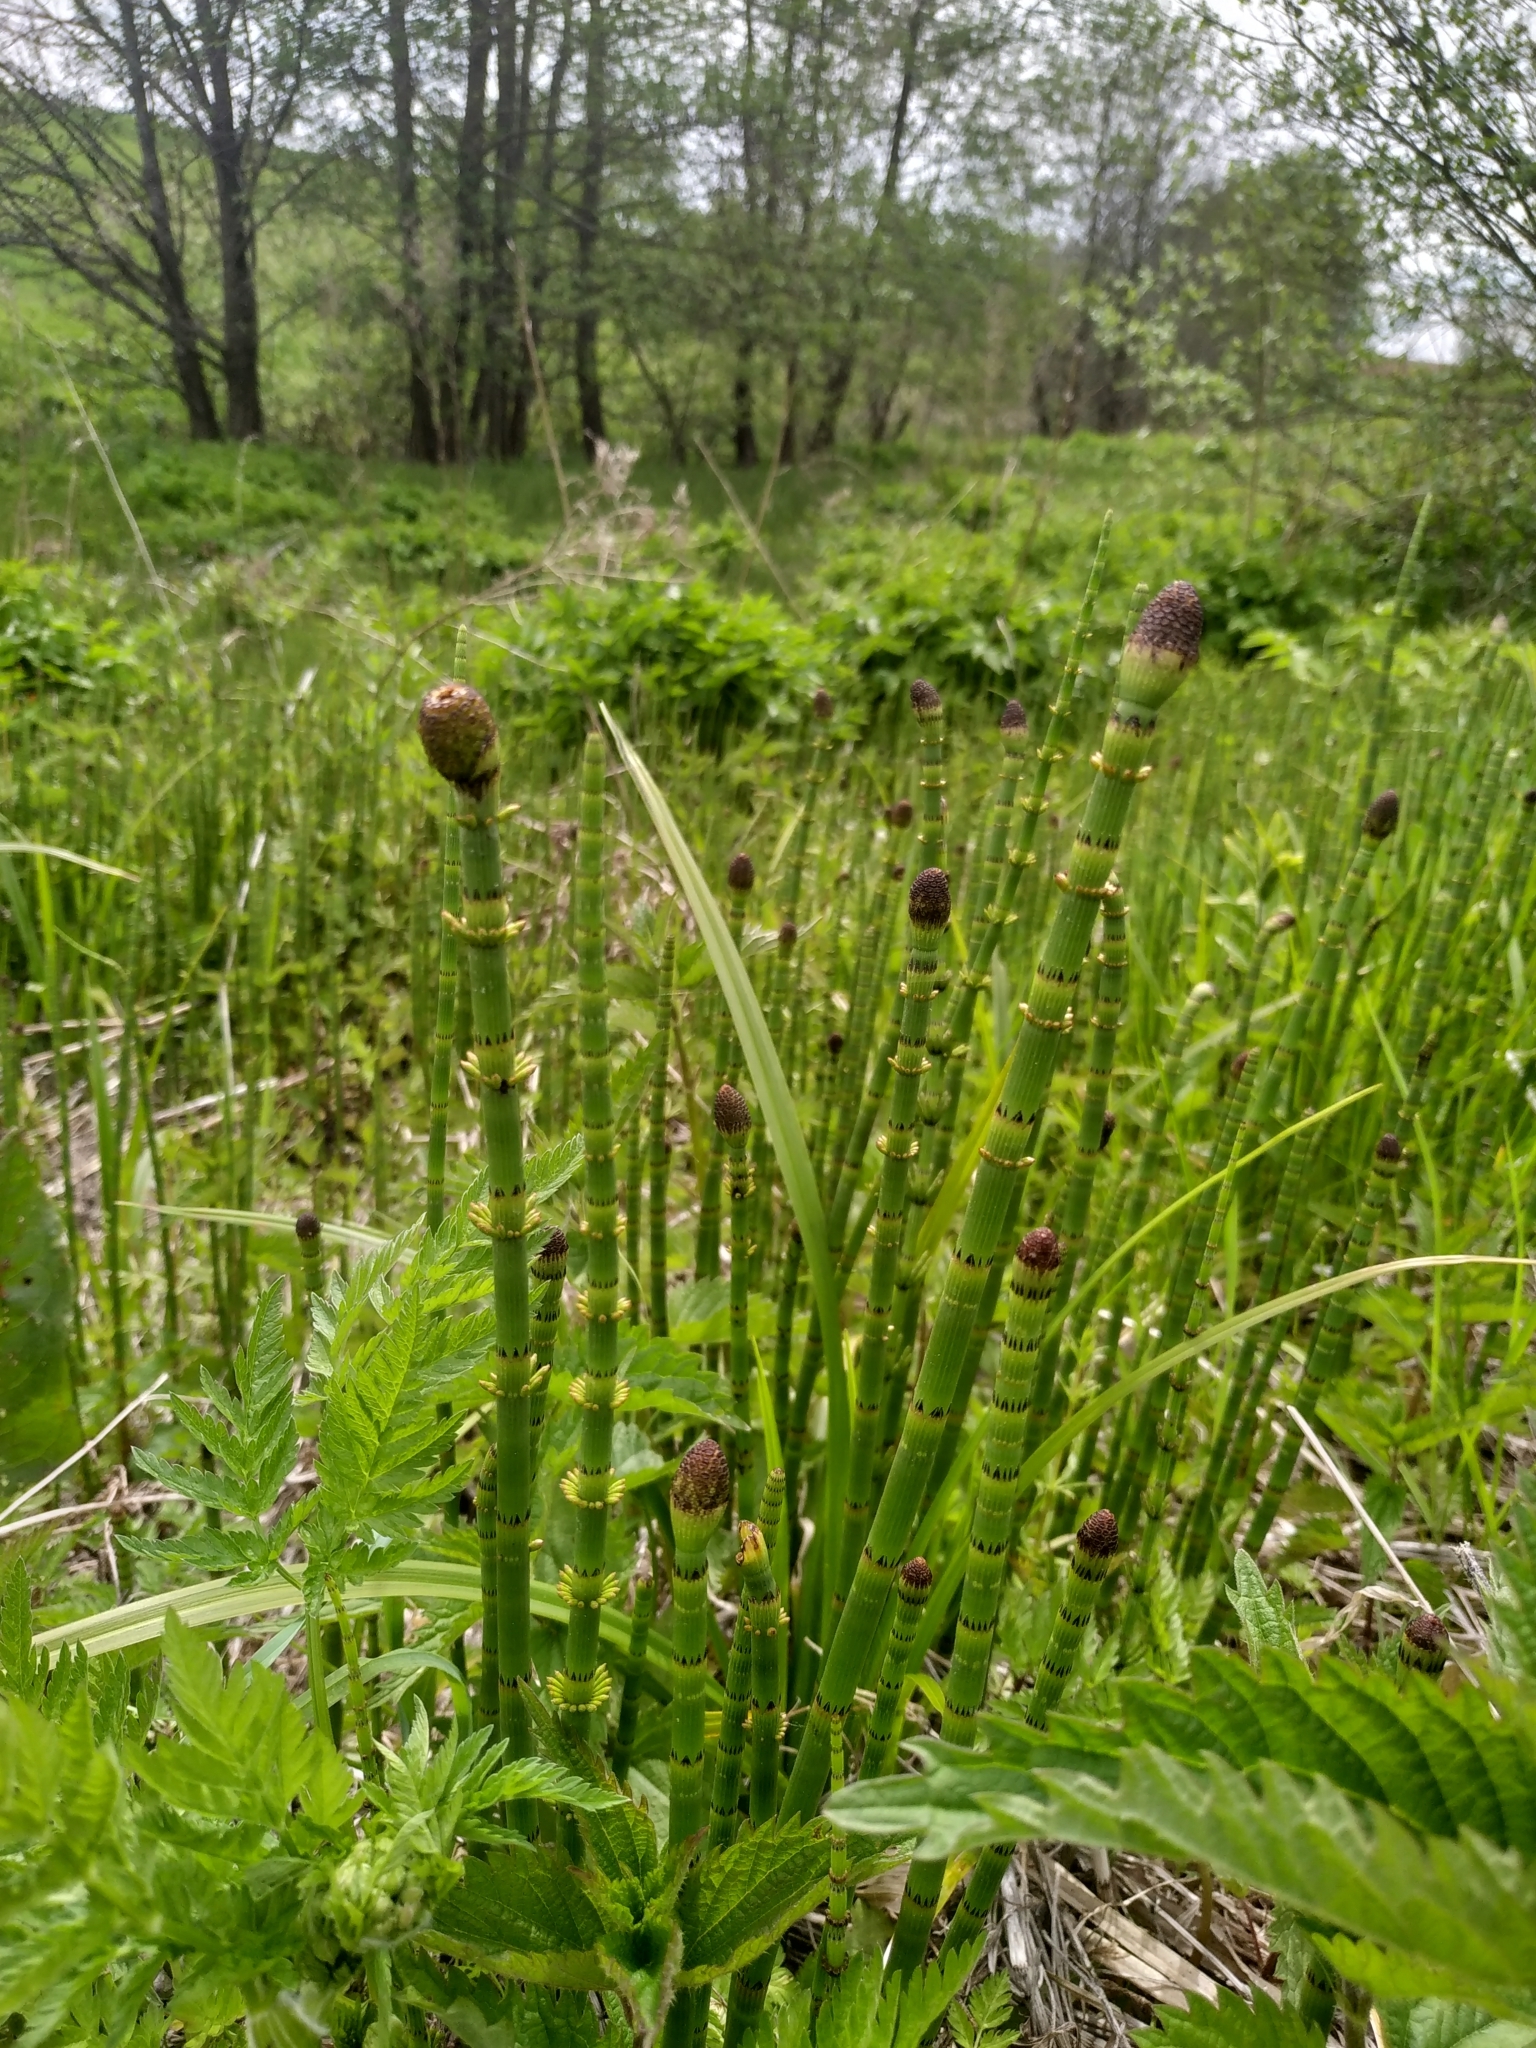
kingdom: Plantae
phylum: Tracheophyta
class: Polypodiopsida
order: Equisetales
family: Equisetaceae
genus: Equisetum
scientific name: Equisetum fluviatile
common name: Water horsetail
